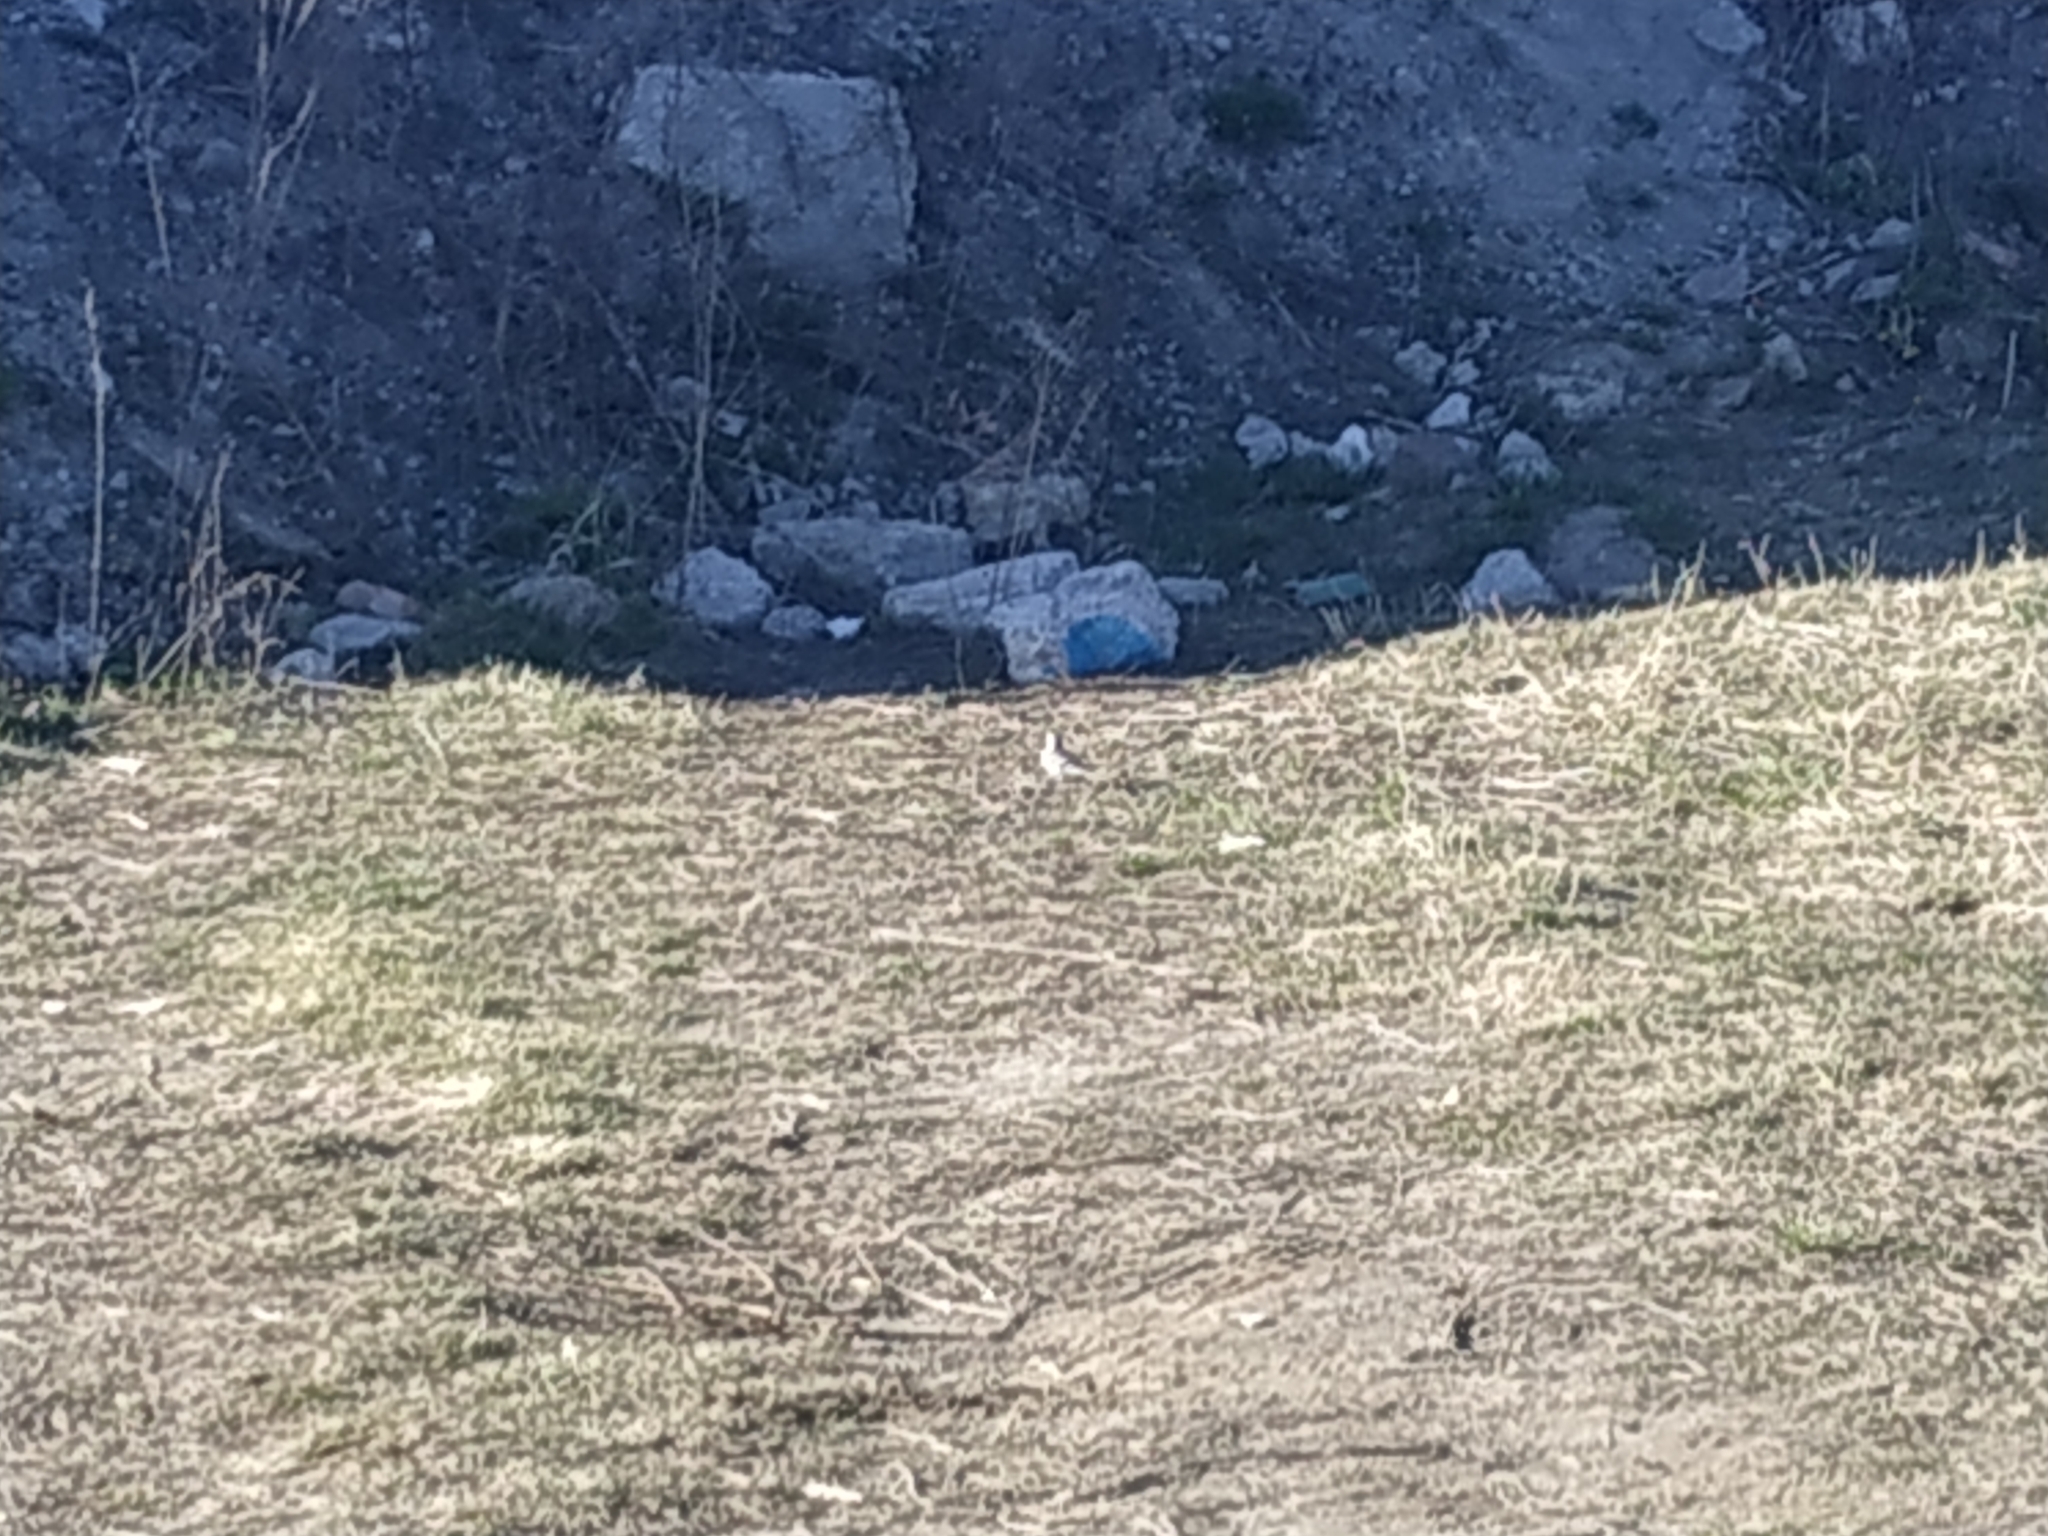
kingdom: Animalia
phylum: Chordata
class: Aves
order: Passeriformes
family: Motacillidae
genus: Motacilla
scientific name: Motacilla alba
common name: White wagtail
